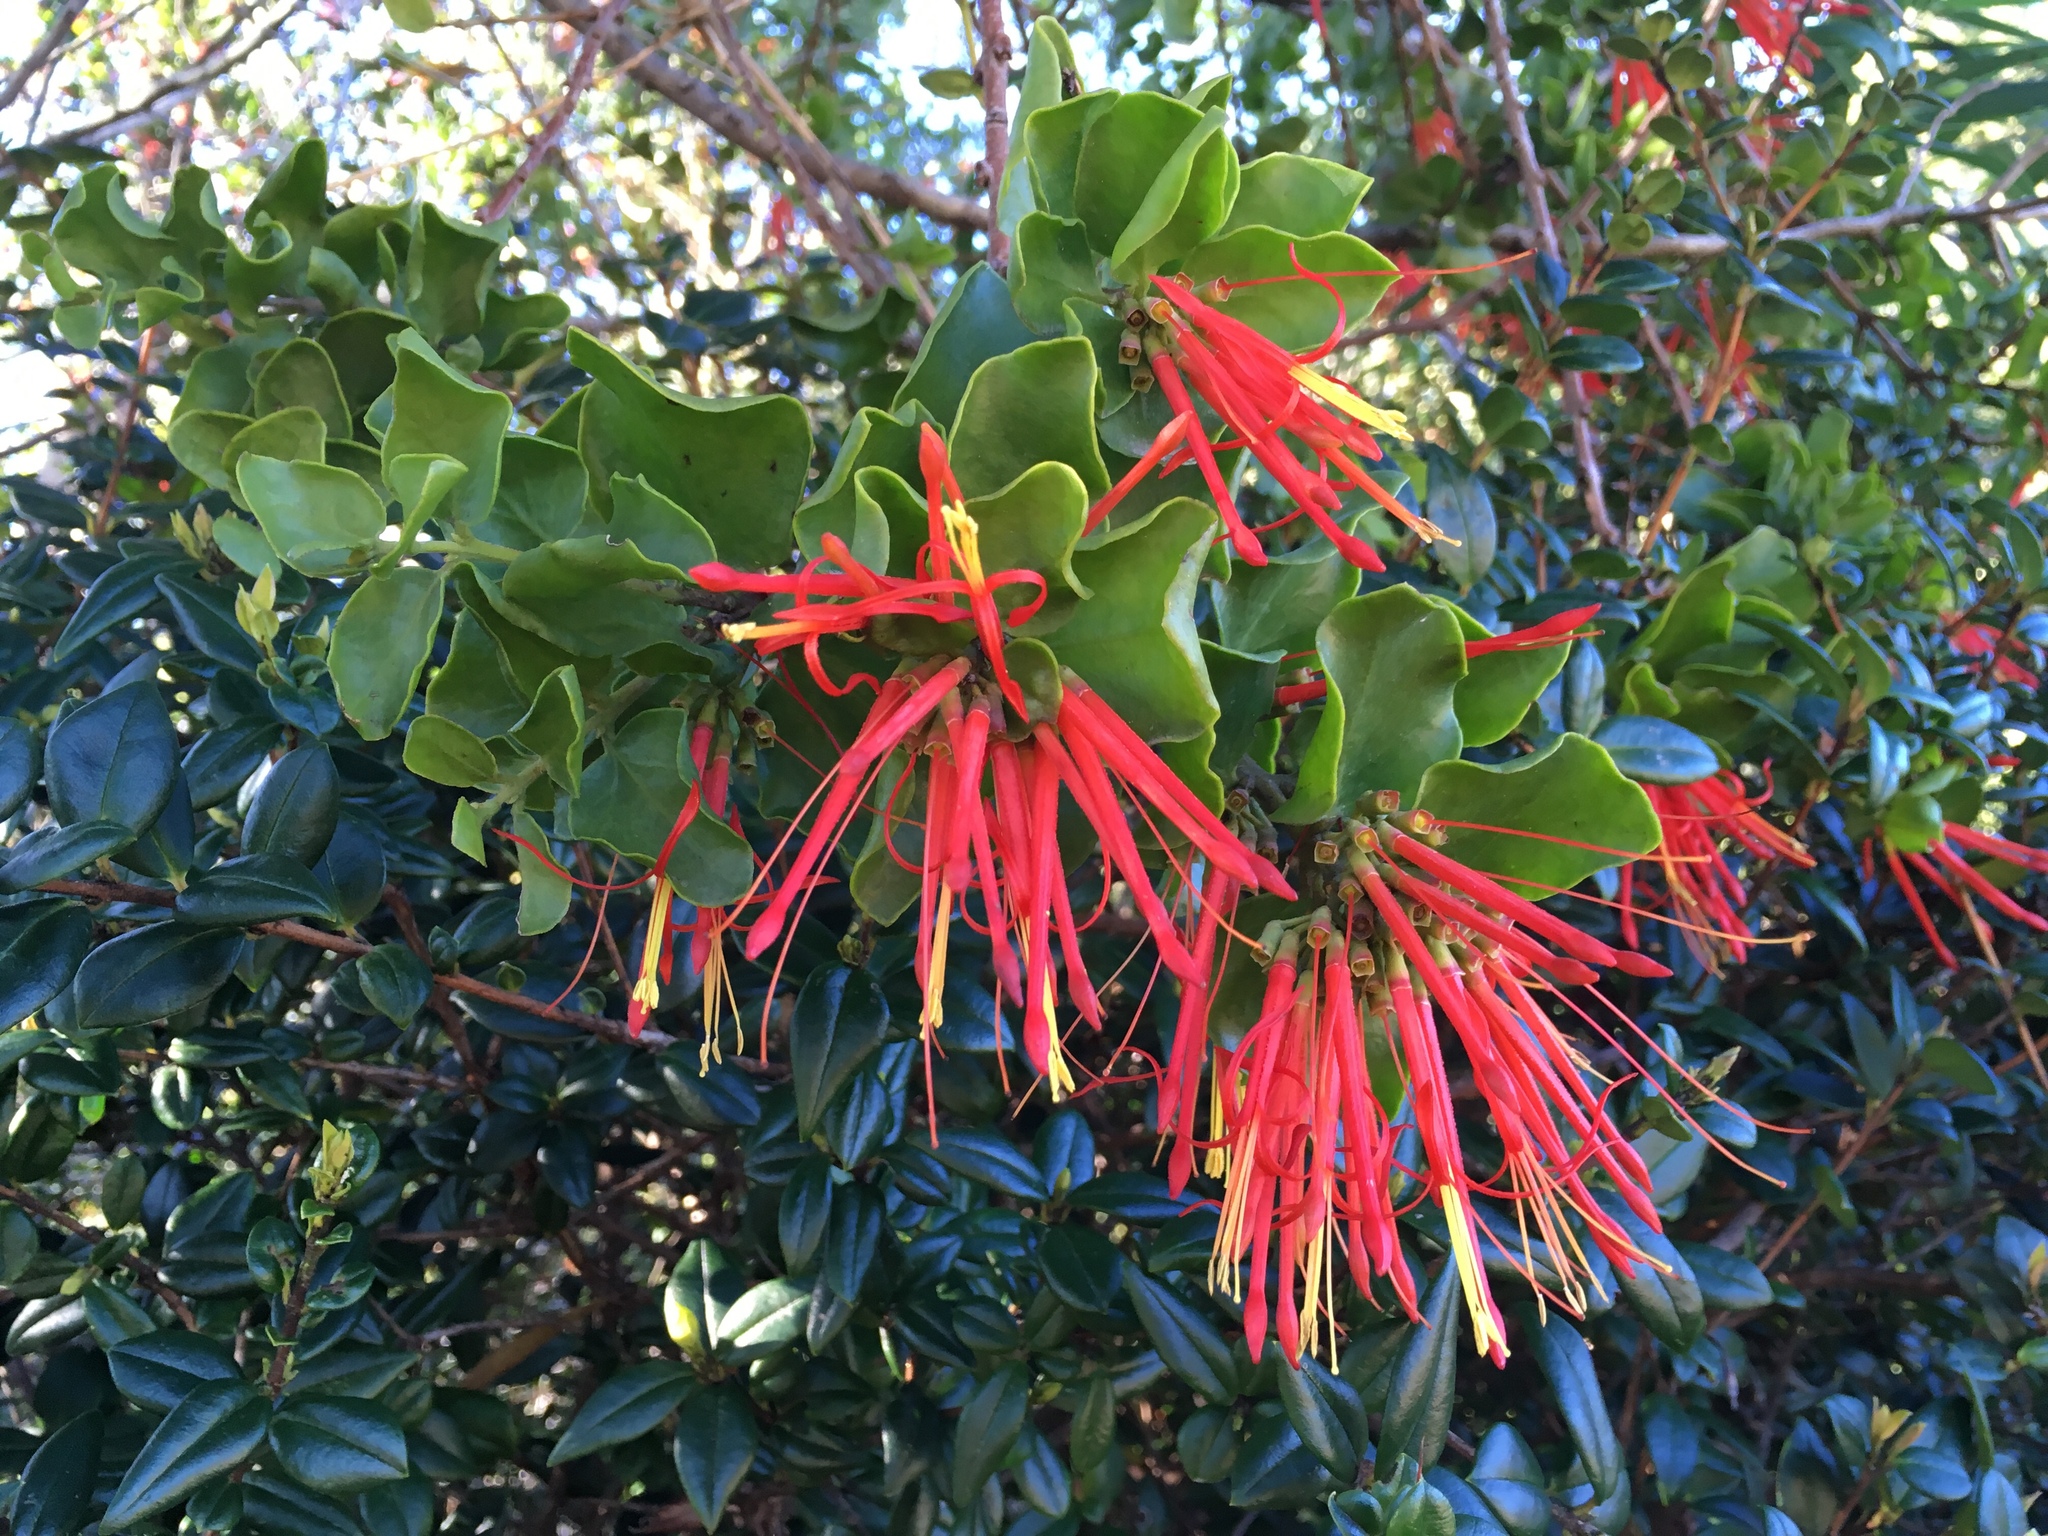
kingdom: Plantae
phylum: Tracheophyta
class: Magnoliopsida
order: Santalales
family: Loranthaceae
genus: Tristerix
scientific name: Tristerix corymbosus
